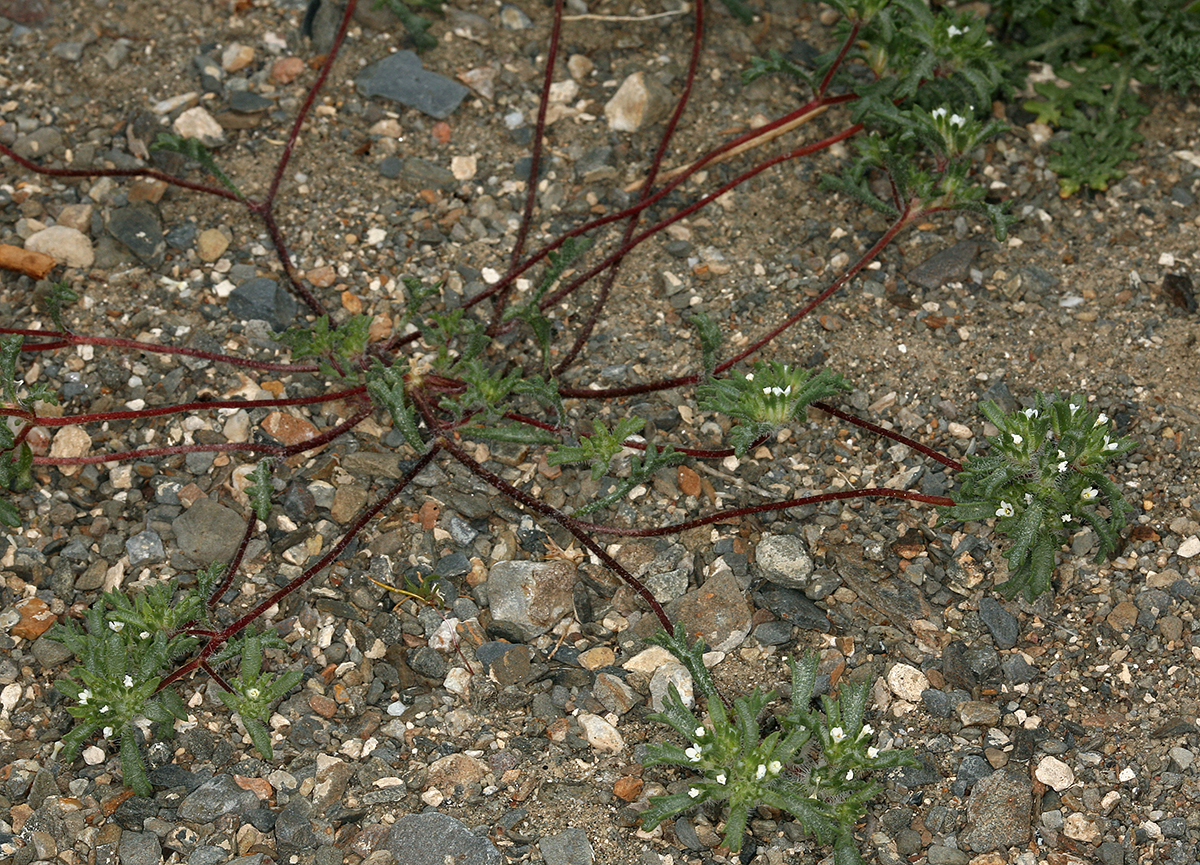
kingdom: Plantae
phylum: Tracheophyta
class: Magnoliopsida
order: Ericales
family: Polemoniaceae
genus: Ipomopsis
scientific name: Ipomopsis polycladon
